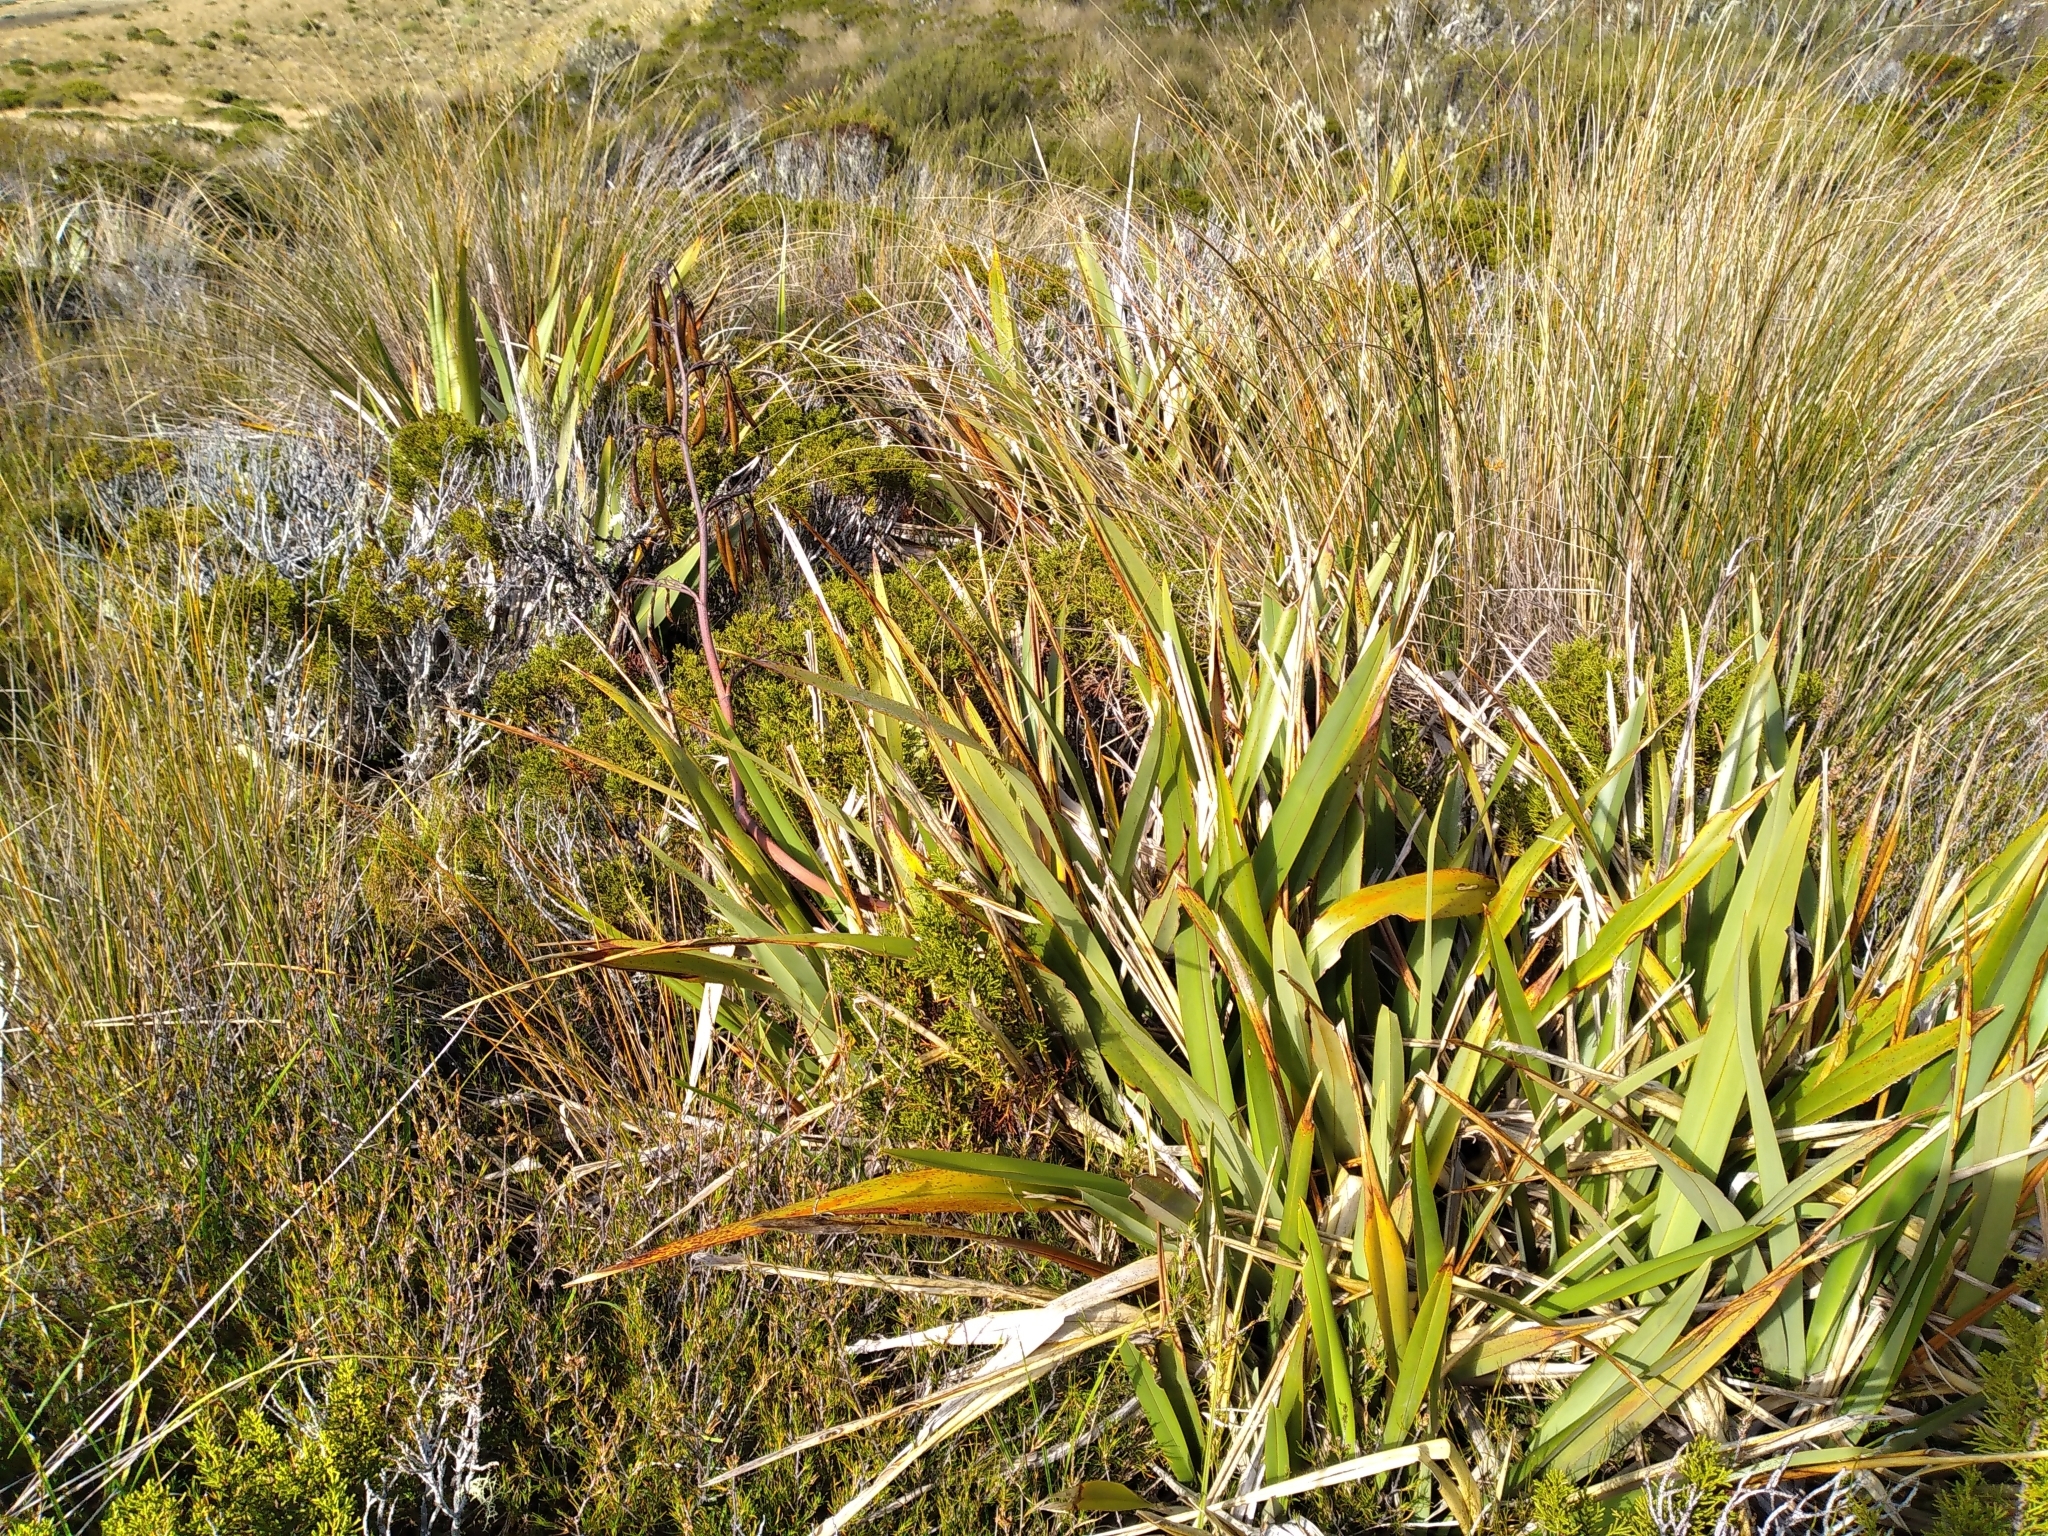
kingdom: Plantae
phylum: Tracheophyta
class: Liliopsida
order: Asparagales
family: Asphodelaceae
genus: Phormium
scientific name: Phormium colensoi
